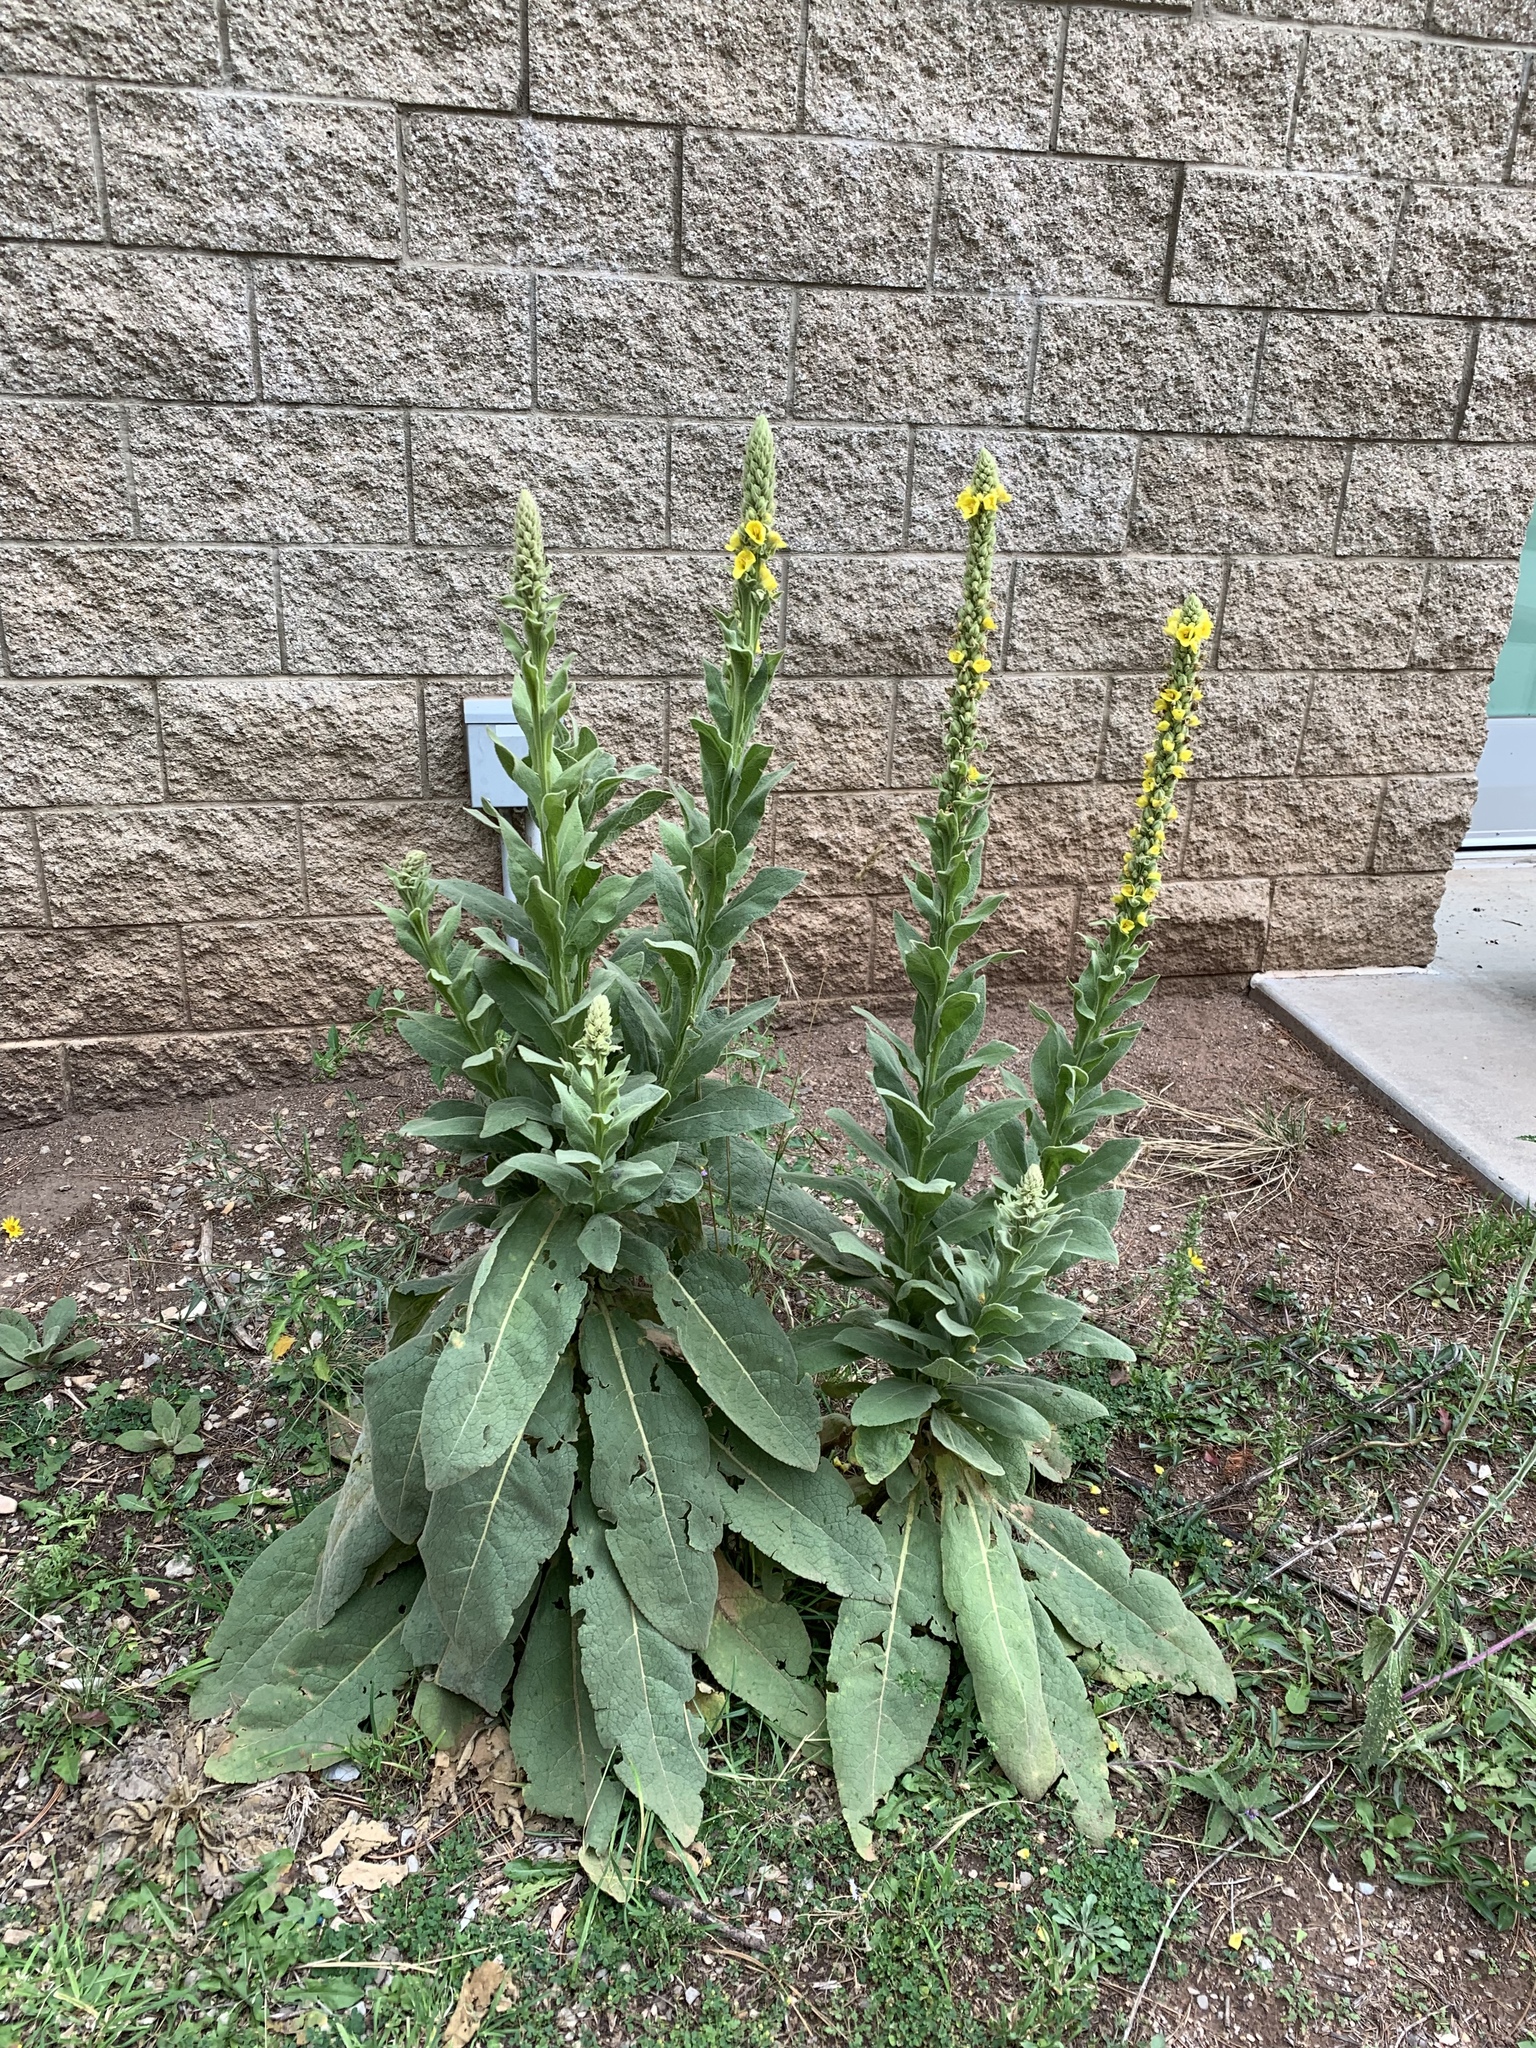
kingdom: Plantae
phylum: Tracheophyta
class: Magnoliopsida
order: Lamiales
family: Scrophulariaceae
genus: Verbascum
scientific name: Verbascum thapsus
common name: Common mullein
